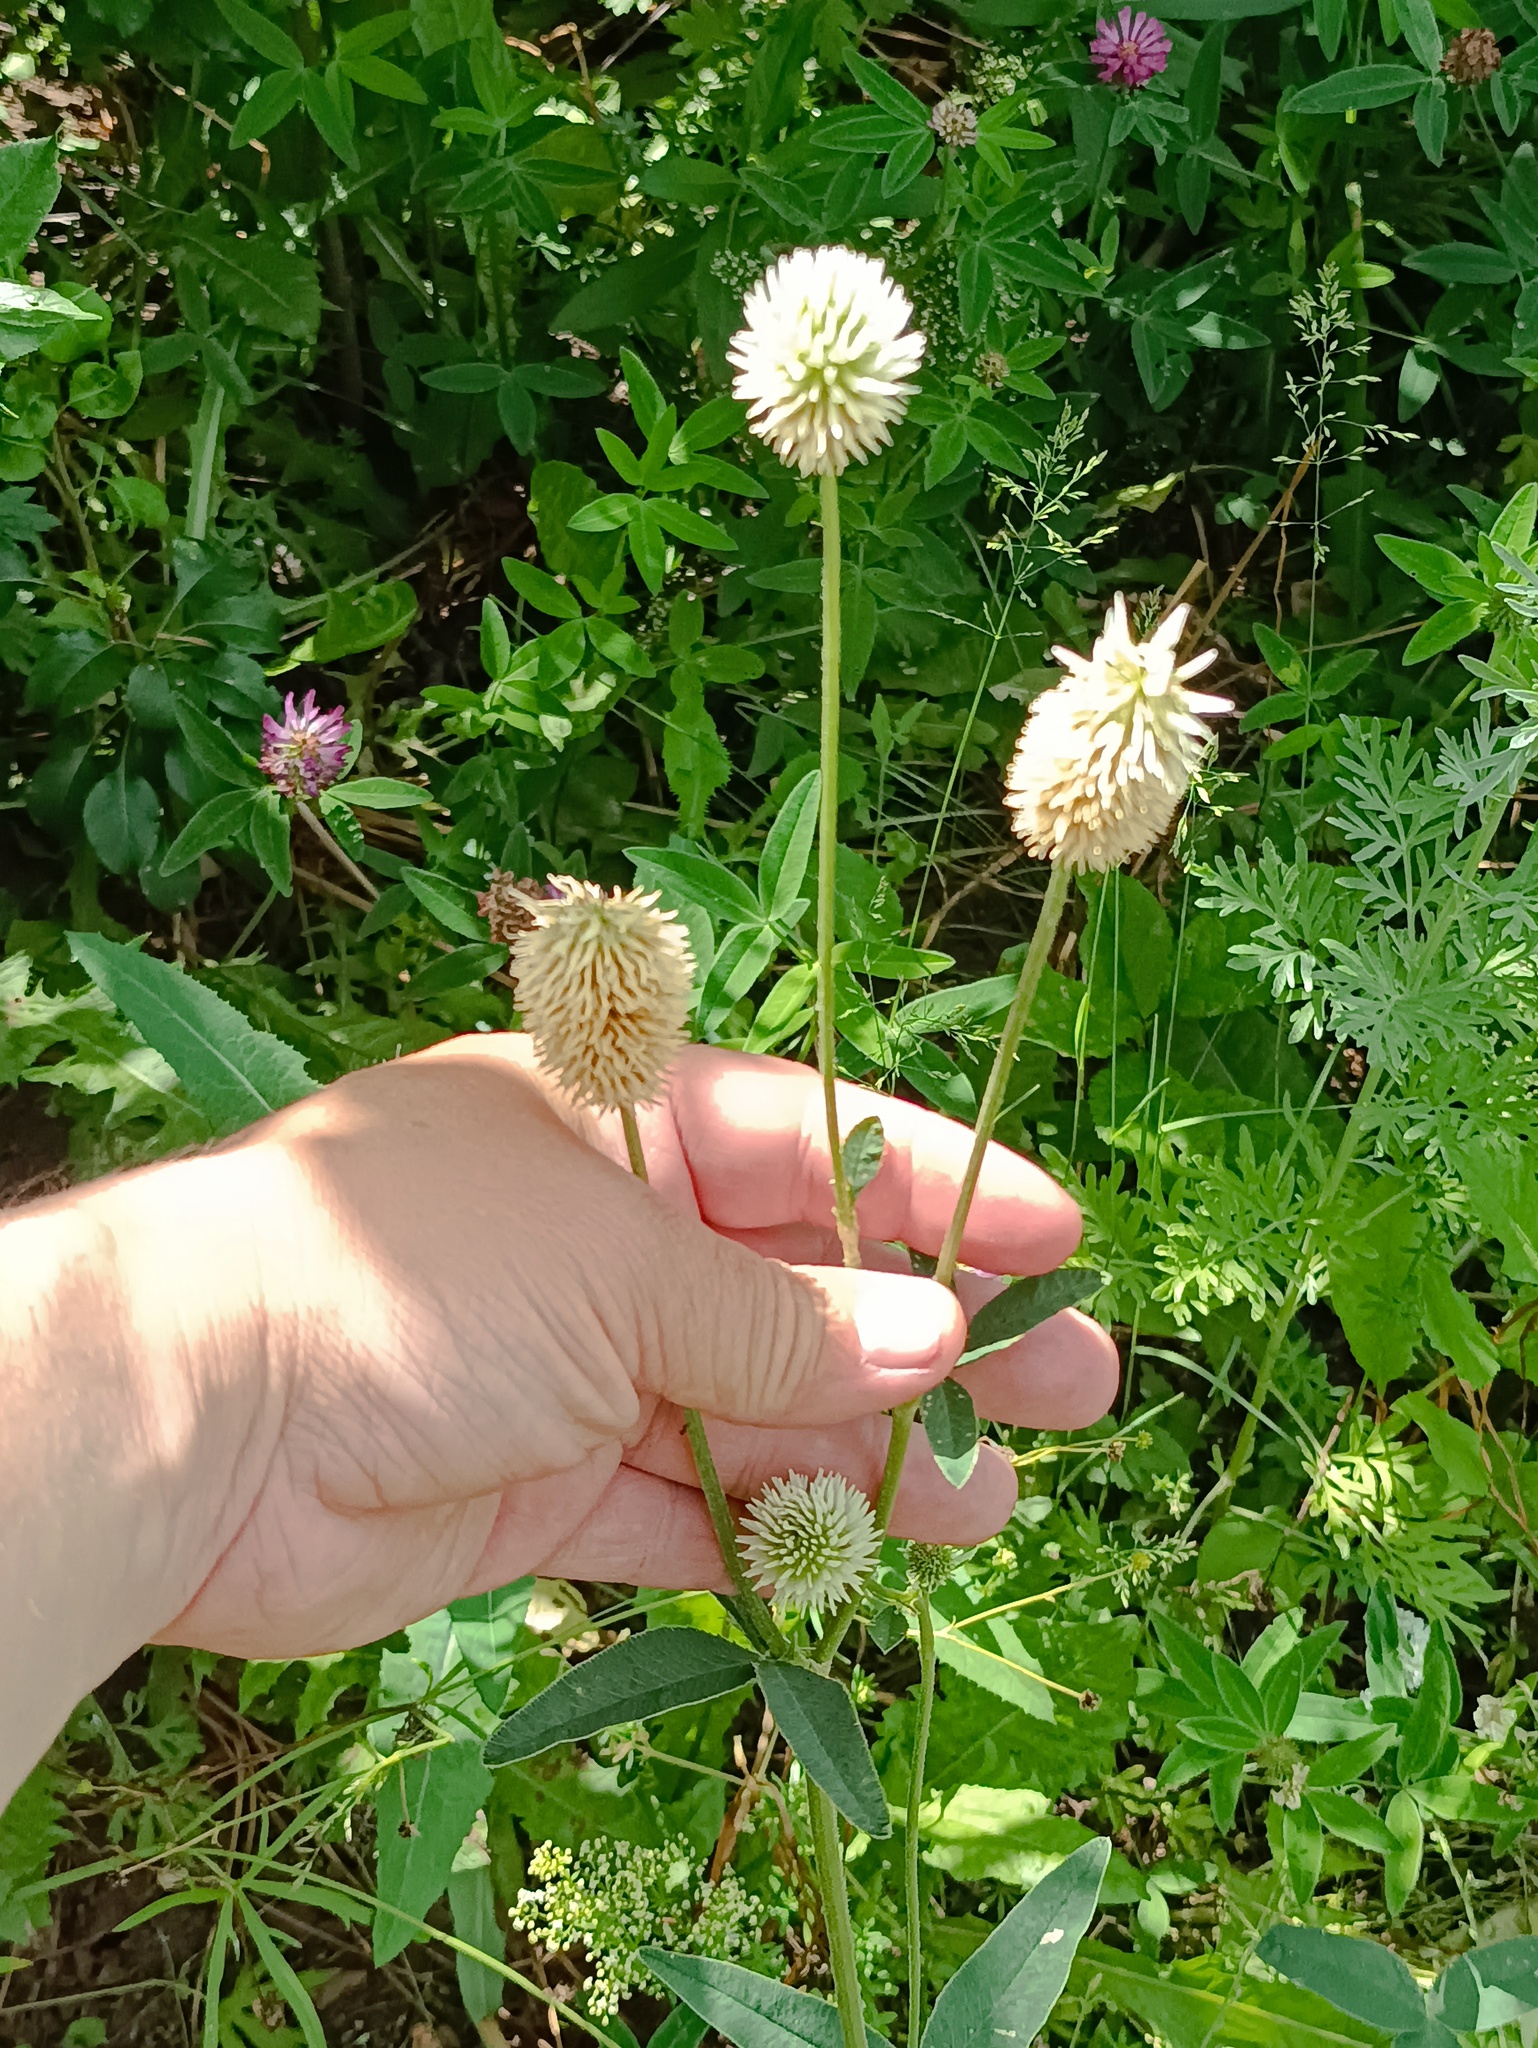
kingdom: Plantae
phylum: Tracheophyta
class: Magnoliopsida
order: Fabales
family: Fabaceae
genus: Trifolium
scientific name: Trifolium montanum
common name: Mountain clover
